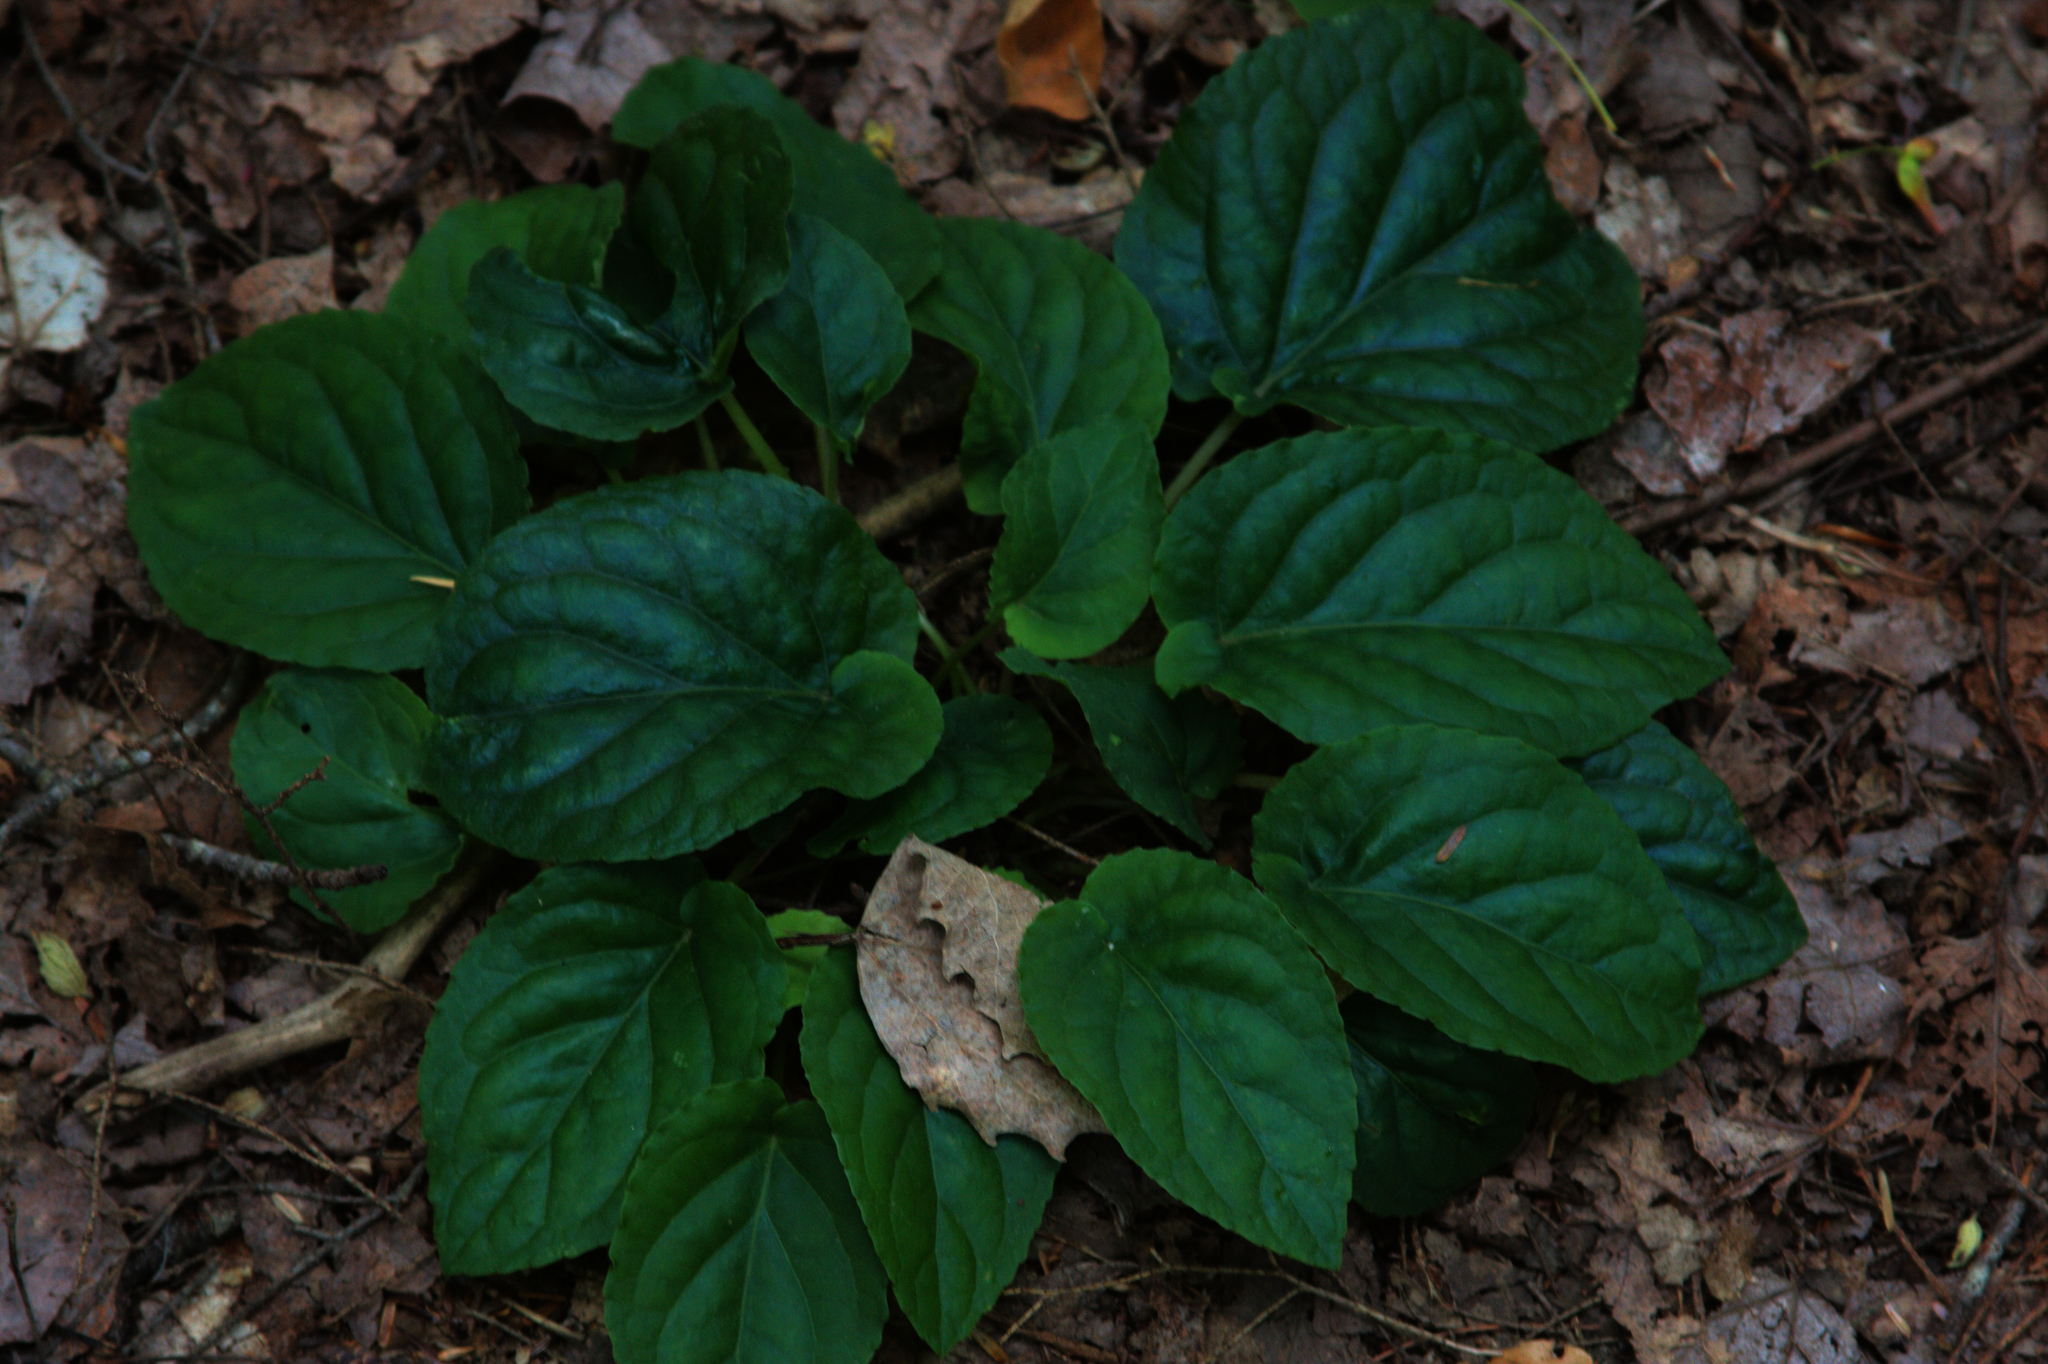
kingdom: Plantae
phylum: Tracheophyta
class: Magnoliopsida
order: Malpighiales
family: Violaceae
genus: Viola
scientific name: Viola rotundifolia
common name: Early yellow violet
